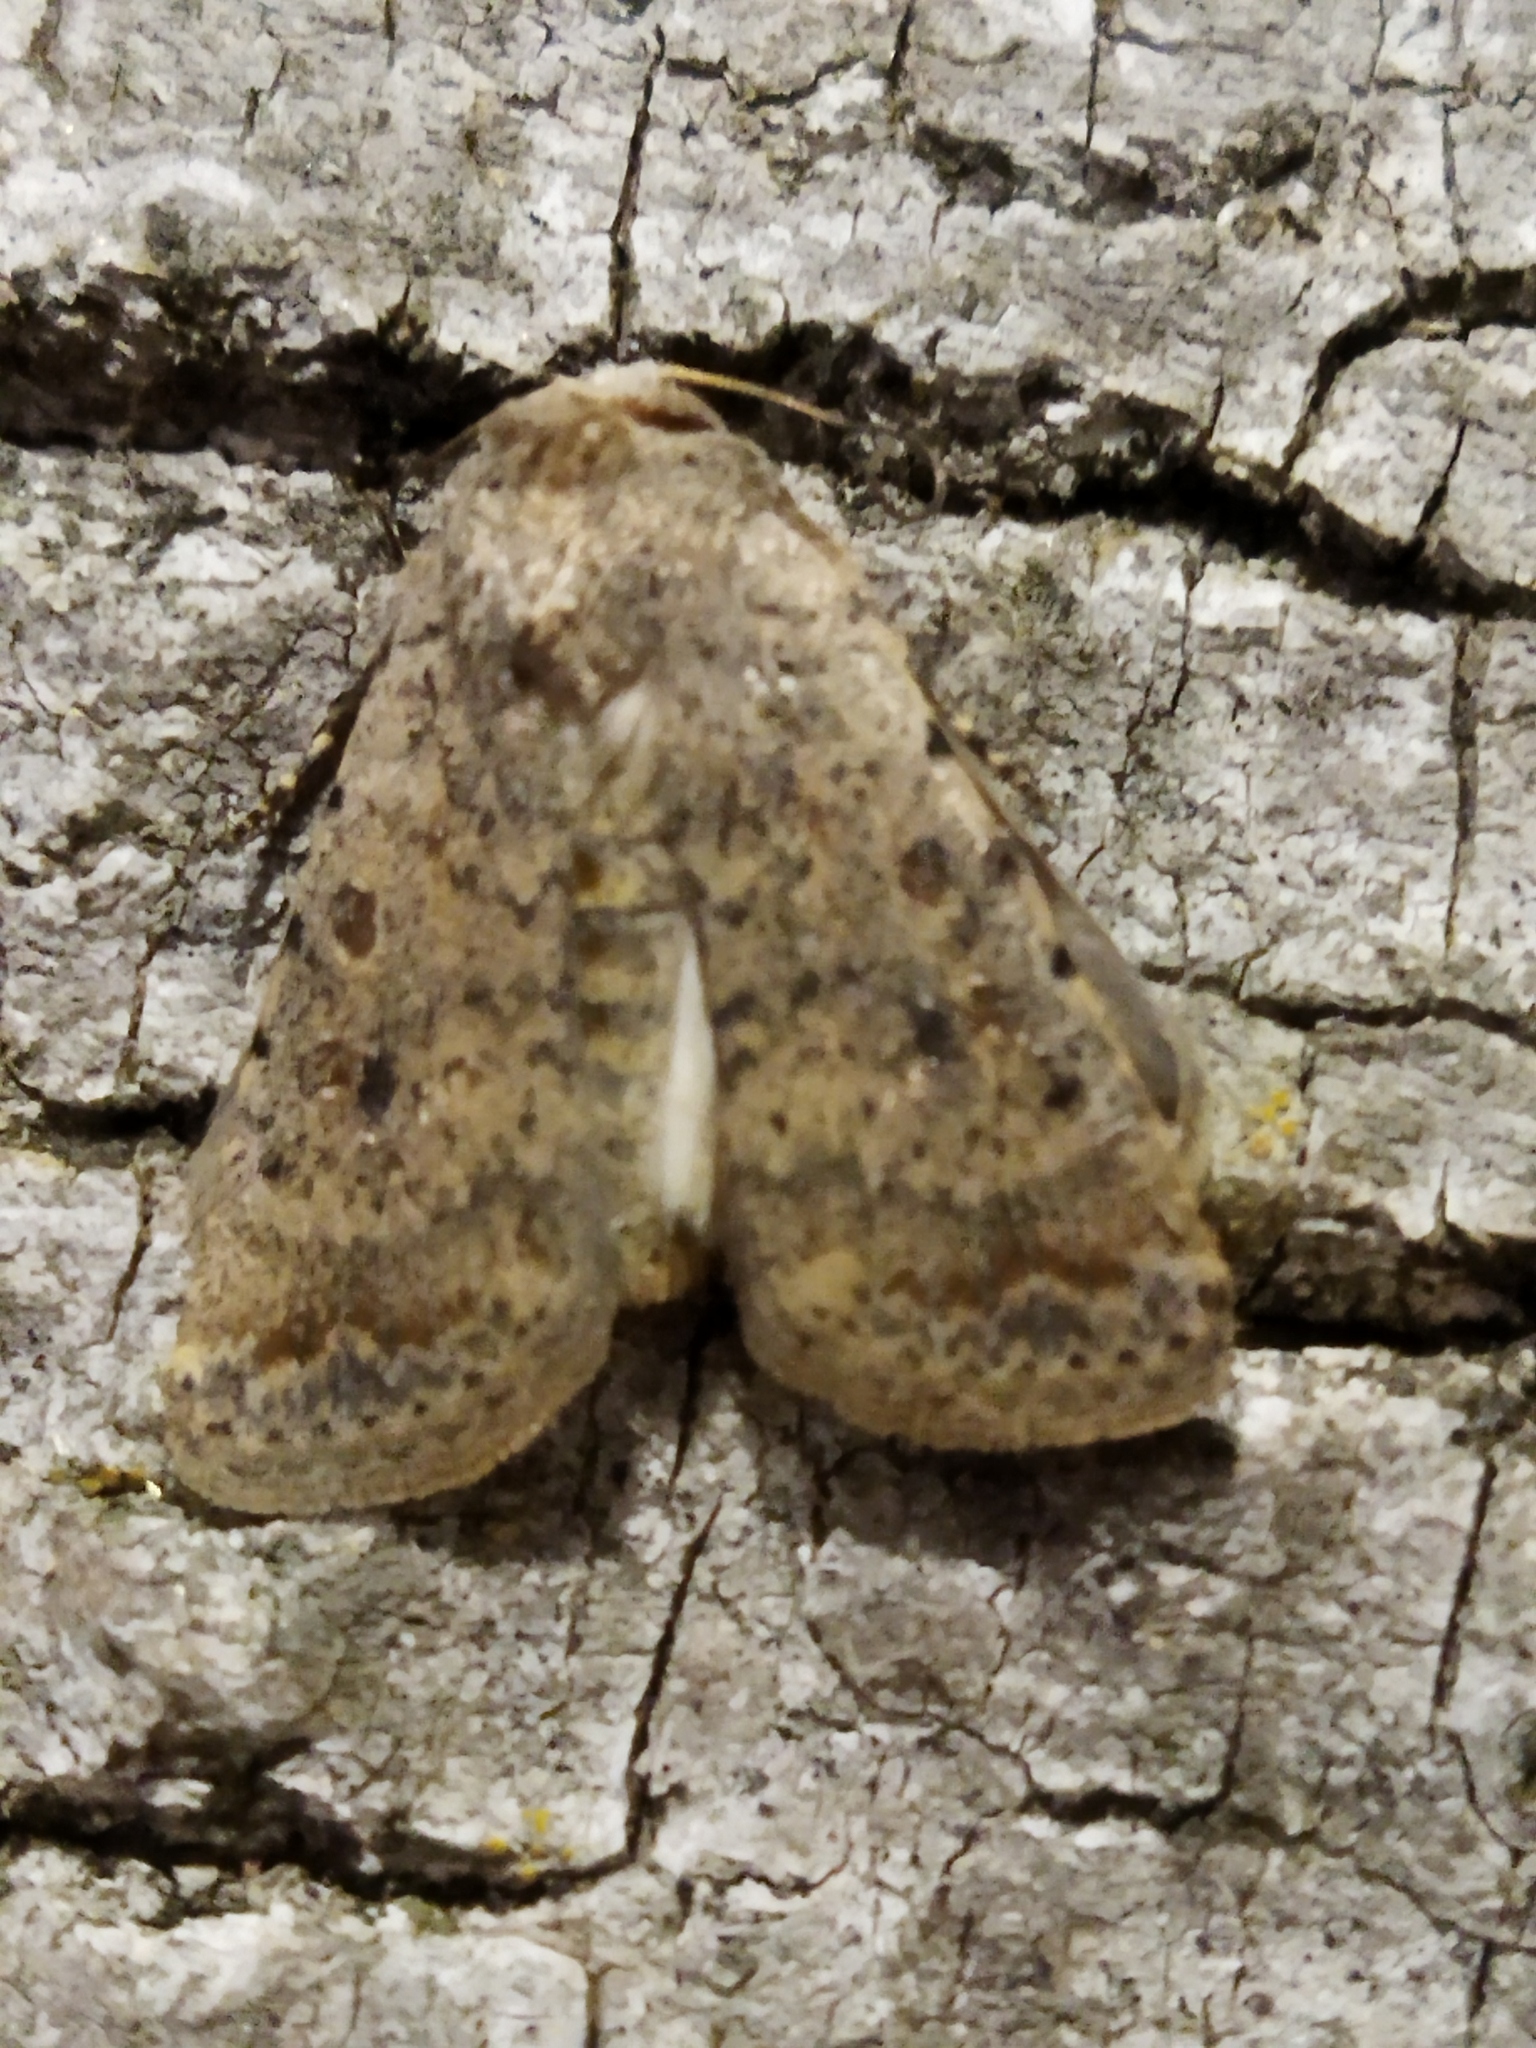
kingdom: Animalia
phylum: Arthropoda
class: Insecta
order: Lepidoptera
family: Noctuidae
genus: Caradrina
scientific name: Caradrina clavipalpis
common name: Pale mottled willow
